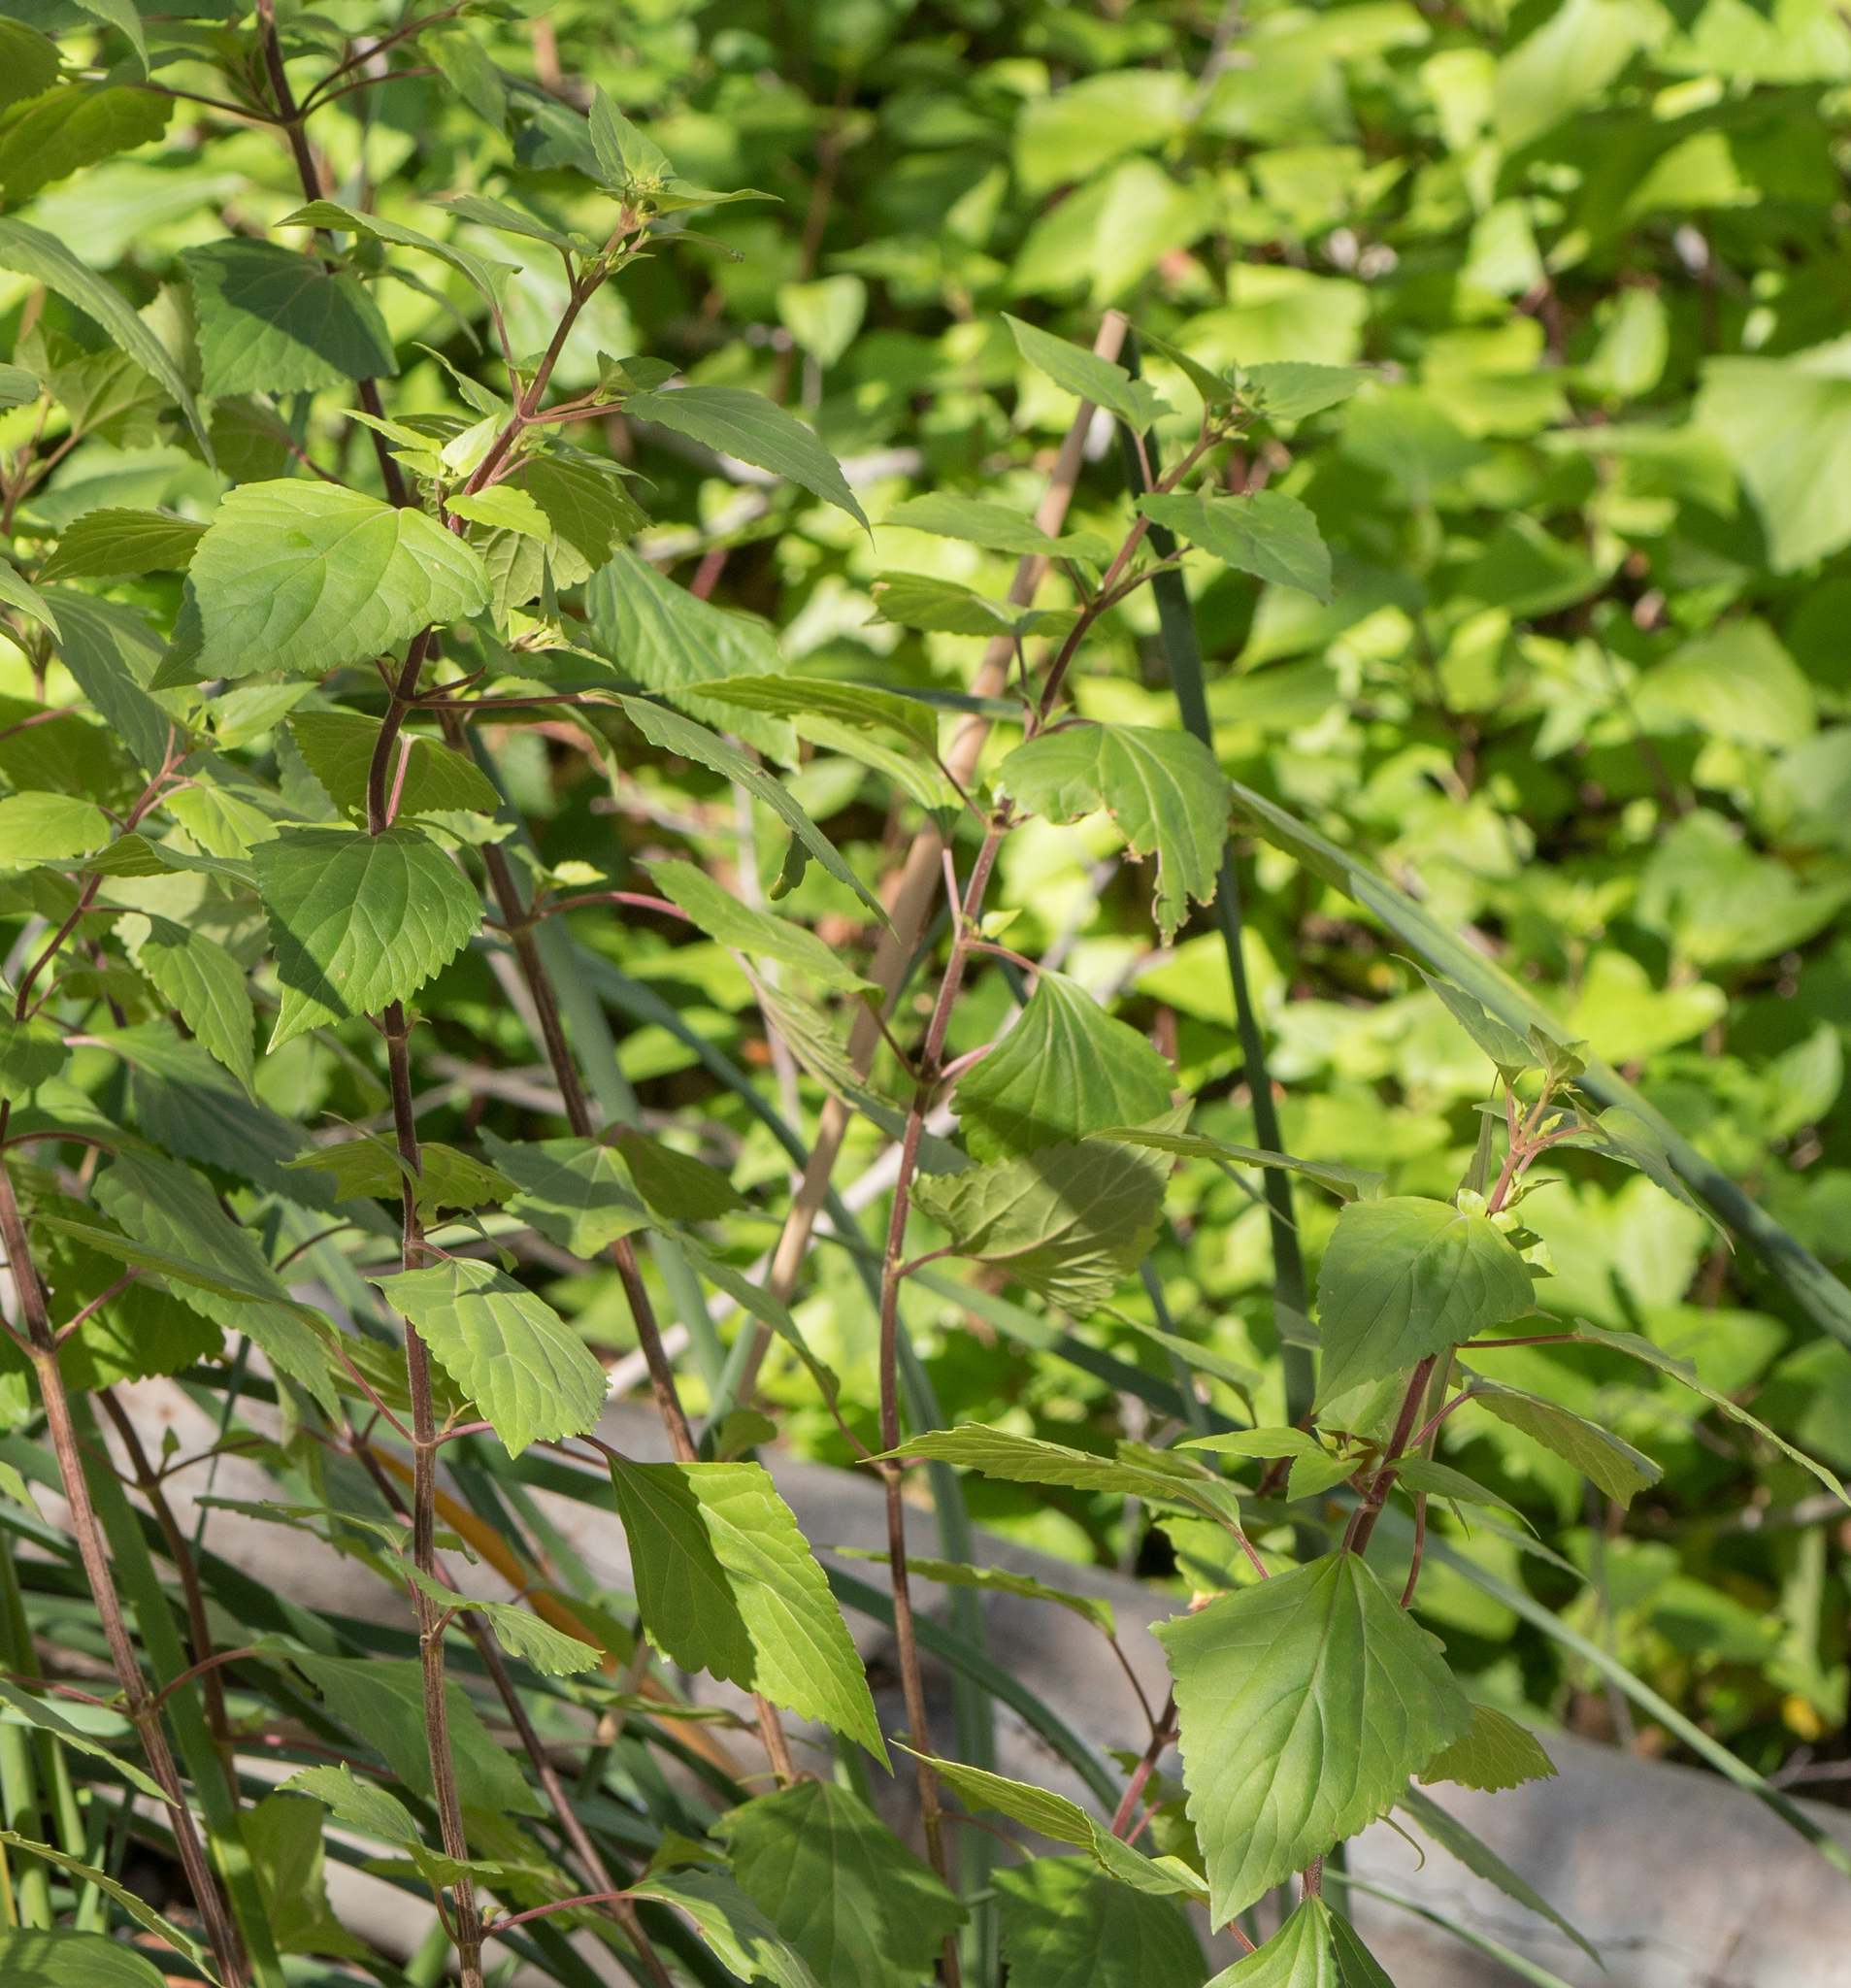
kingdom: Plantae
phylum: Tracheophyta
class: Magnoliopsida
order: Asterales
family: Asteraceae
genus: Ageratina
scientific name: Ageratina adenophora
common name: Sticky snakeroot
